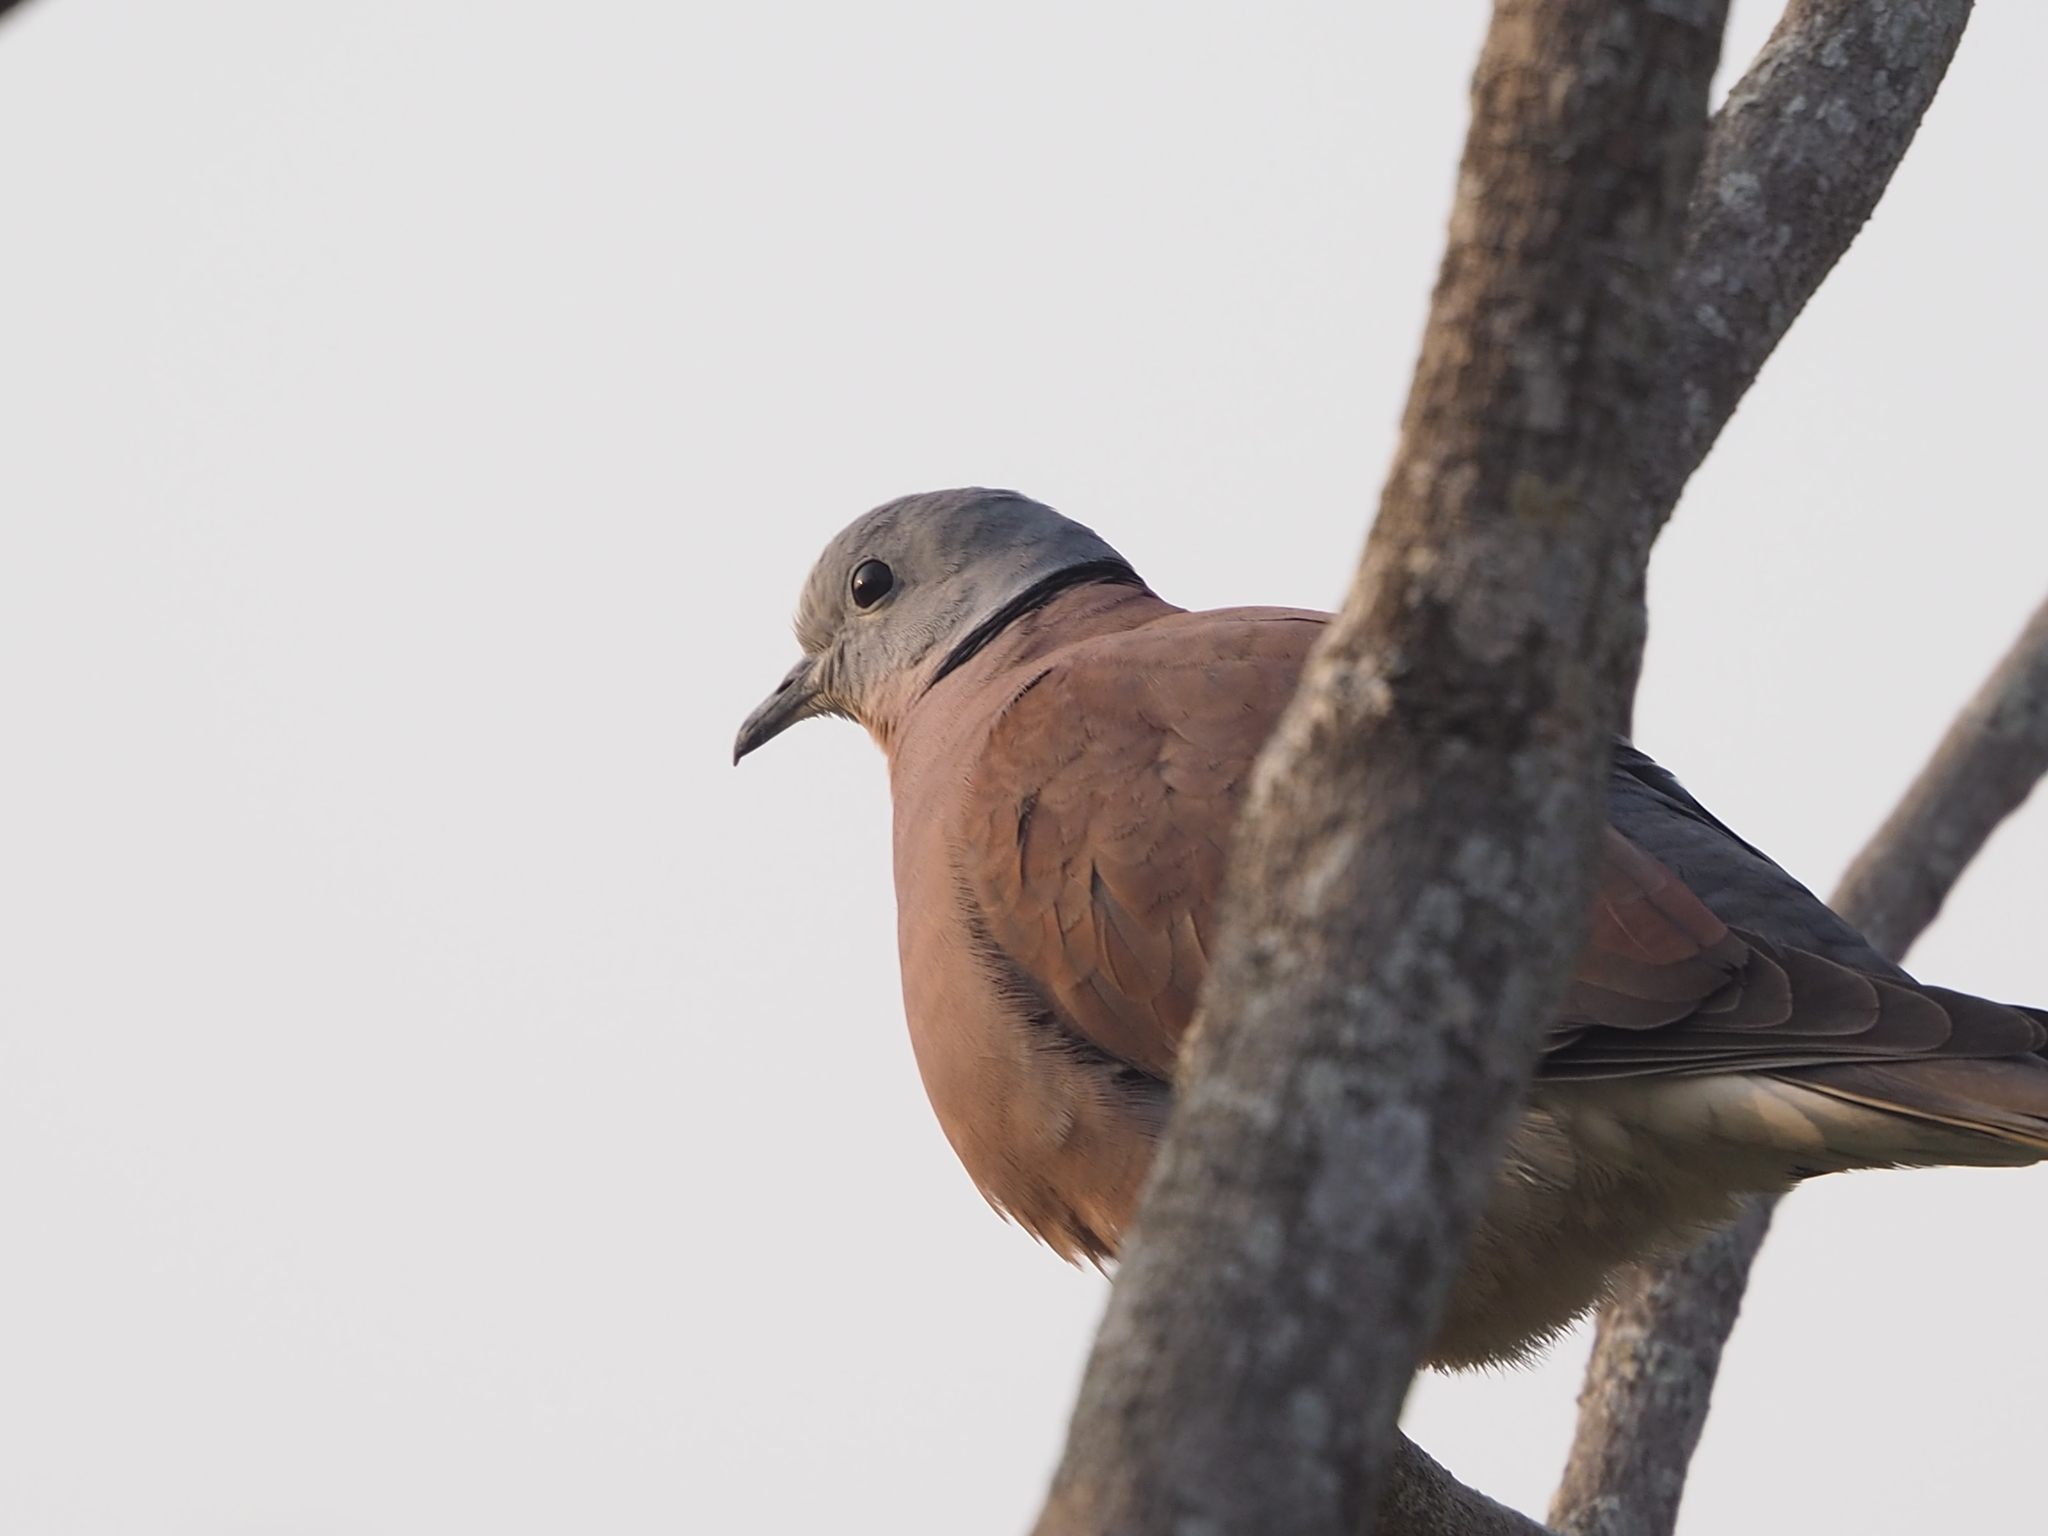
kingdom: Animalia
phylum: Chordata
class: Aves
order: Columbiformes
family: Columbidae
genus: Streptopelia
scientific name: Streptopelia tranquebarica
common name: Red turtle dove
